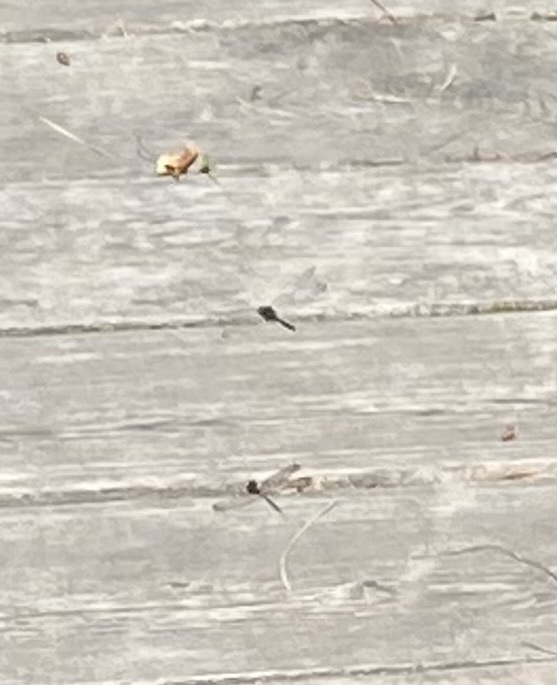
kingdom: Animalia
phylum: Arthropoda
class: Insecta
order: Odonata
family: Libellulidae
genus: Leucorrhinia
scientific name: Leucorrhinia orientalis
